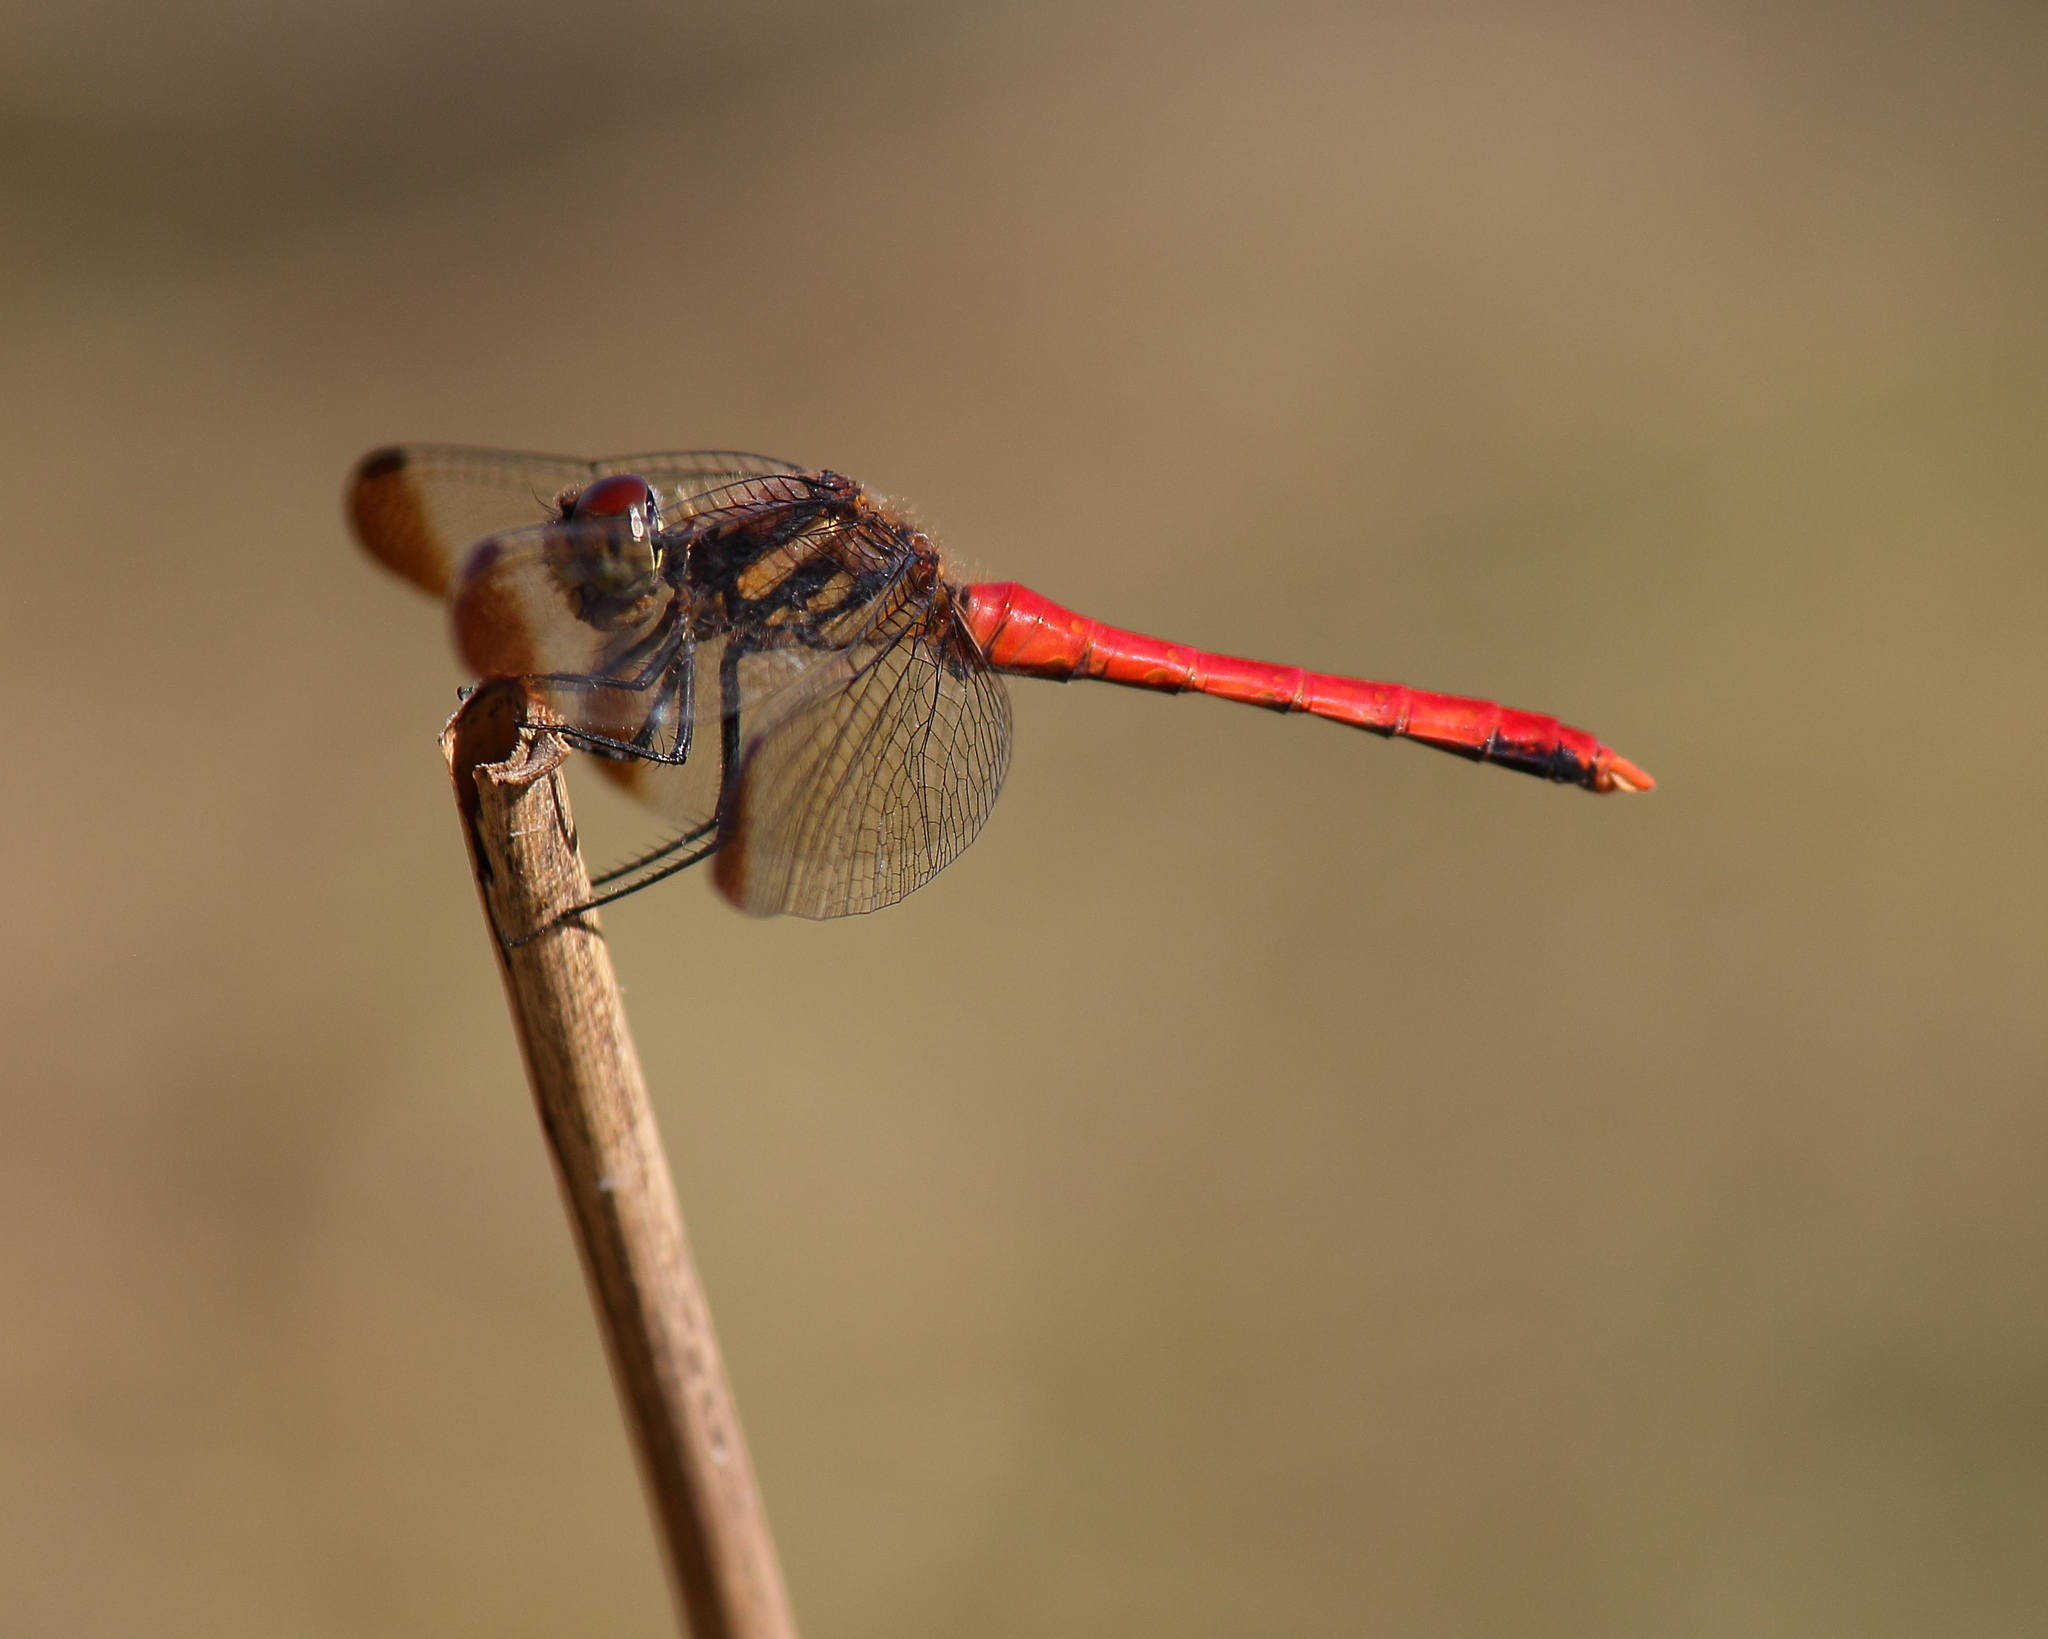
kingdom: Animalia
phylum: Arthropoda
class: Insecta
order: Odonata
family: Libellulidae
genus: Sympetrum
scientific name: Sympetrum risi
